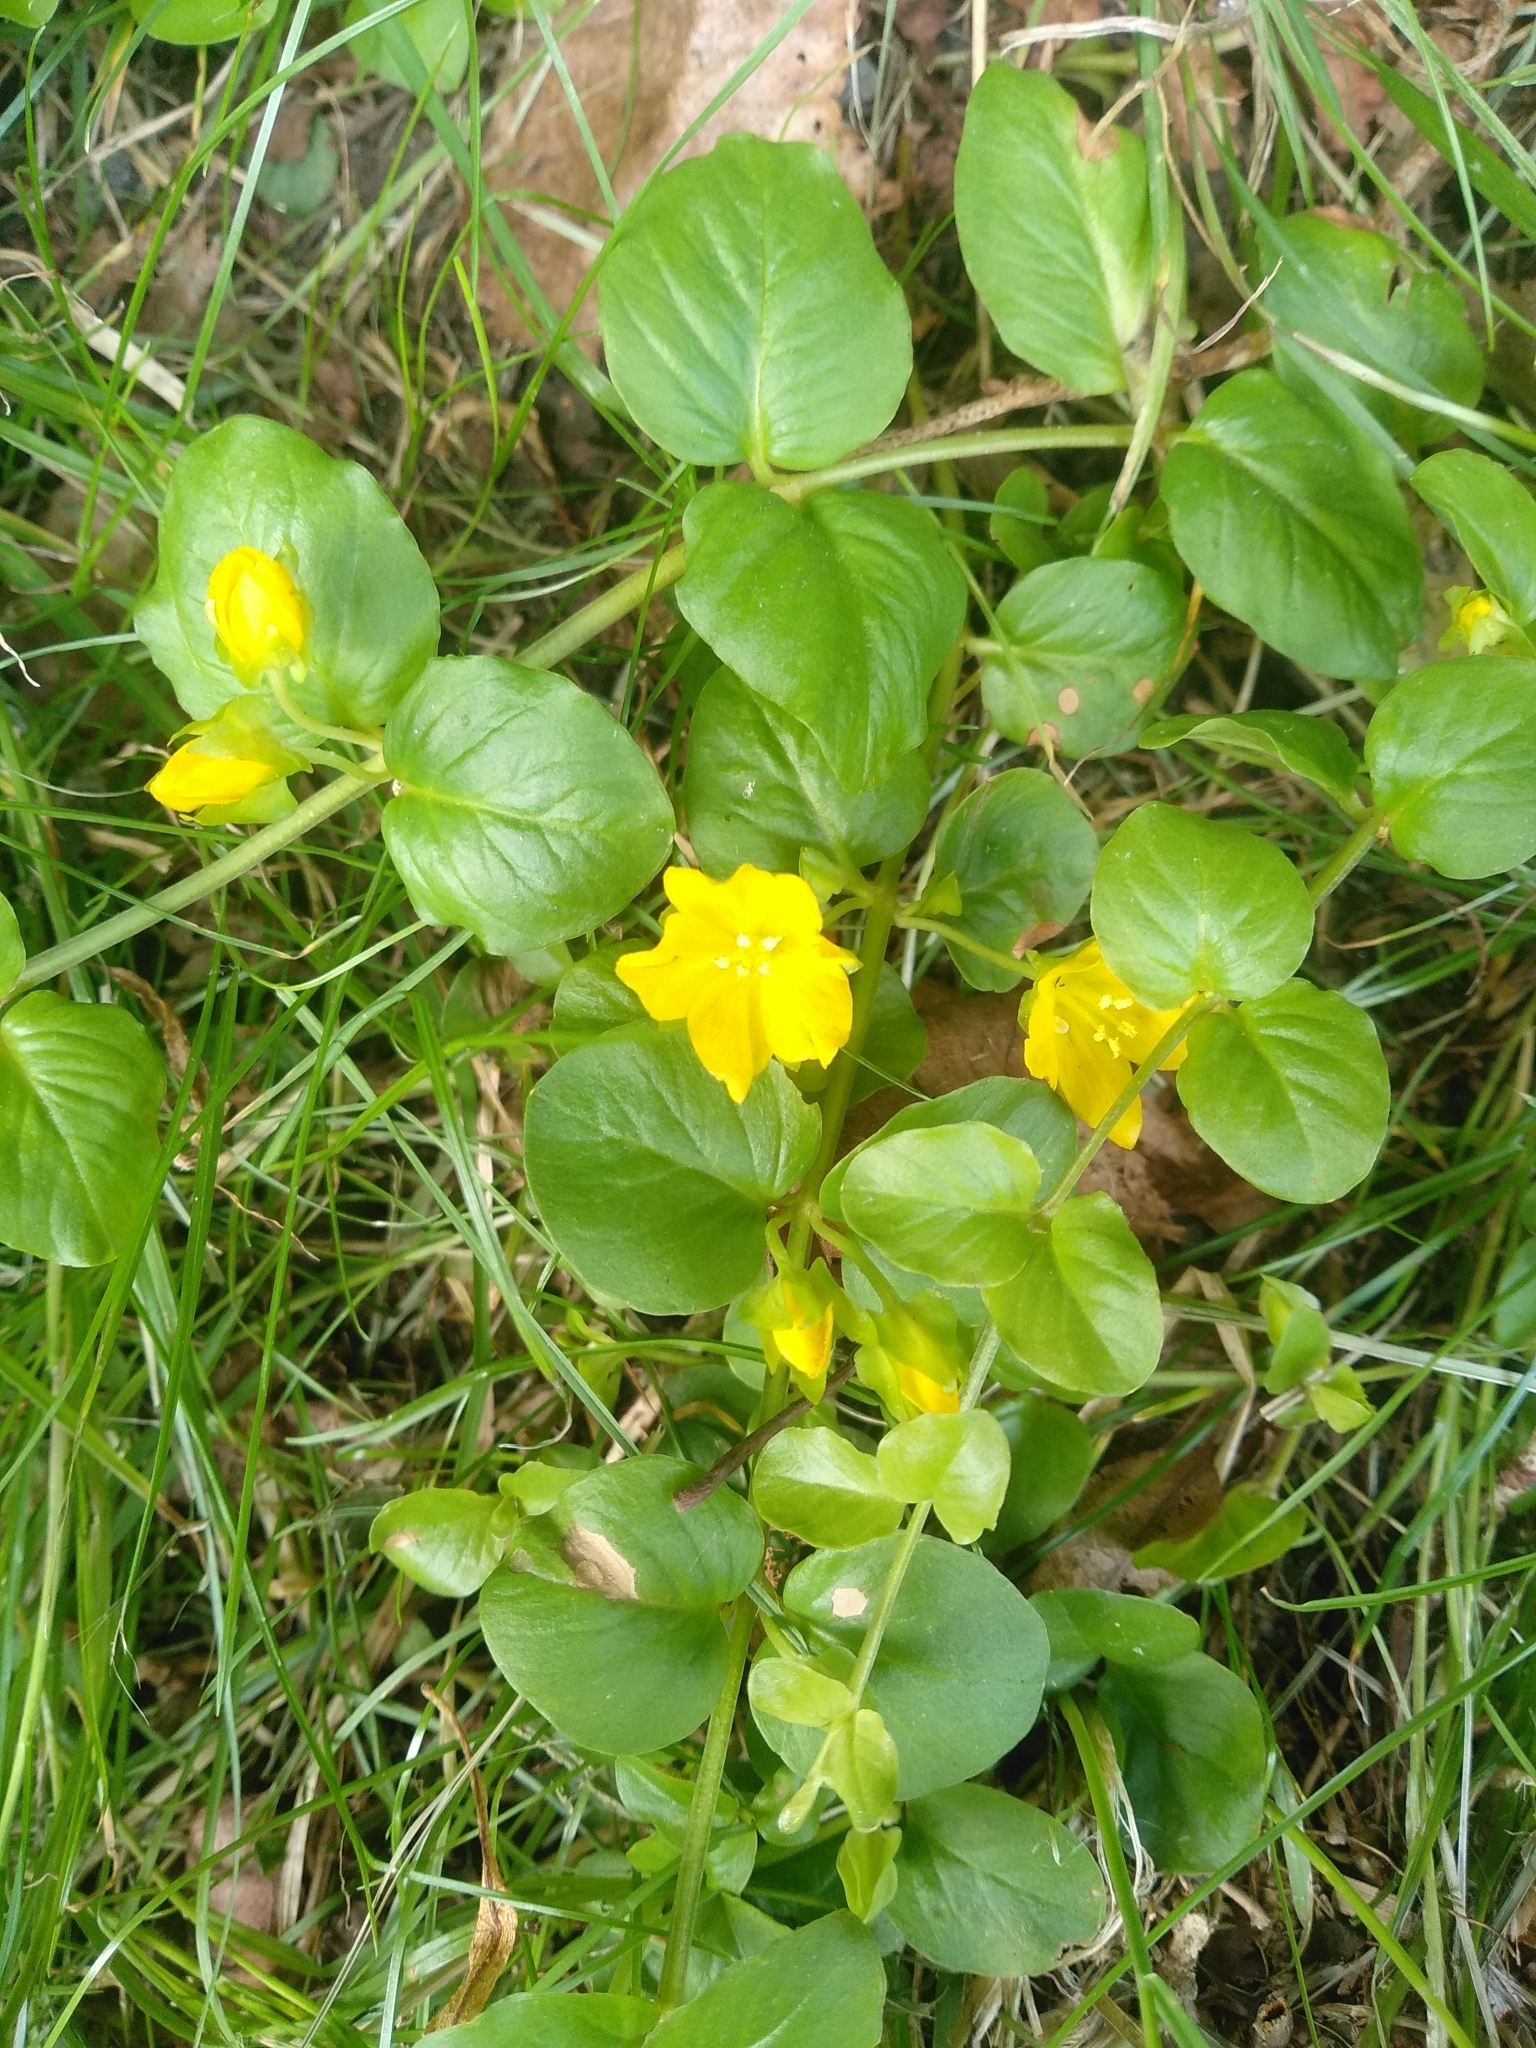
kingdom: Plantae
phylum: Tracheophyta
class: Magnoliopsida
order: Ericales
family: Primulaceae
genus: Lysimachia
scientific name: Lysimachia nummularia
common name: Moneywort
